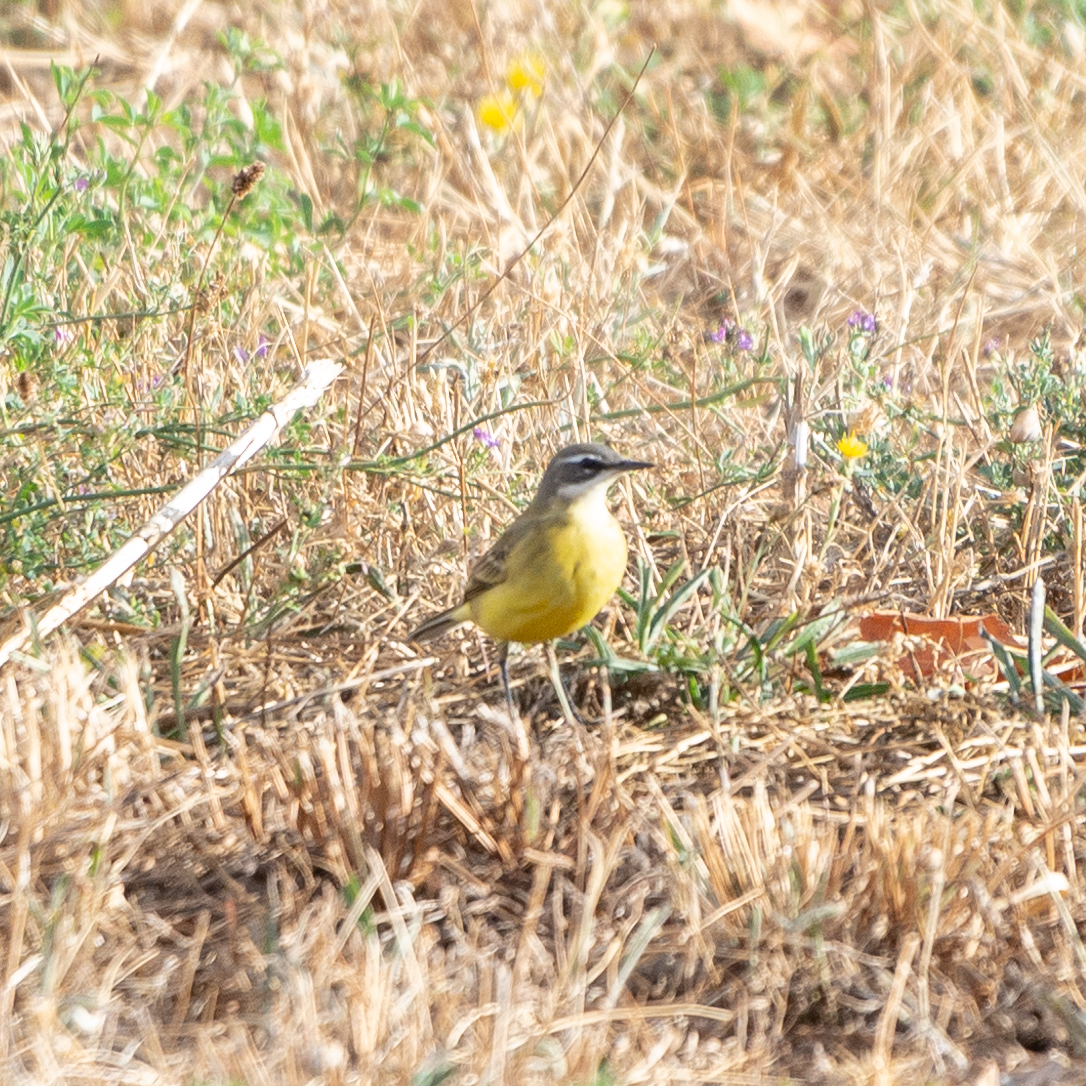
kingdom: Animalia
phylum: Chordata
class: Aves
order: Passeriformes
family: Motacillidae
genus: Motacilla
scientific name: Motacilla flava
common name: Western yellow wagtail
